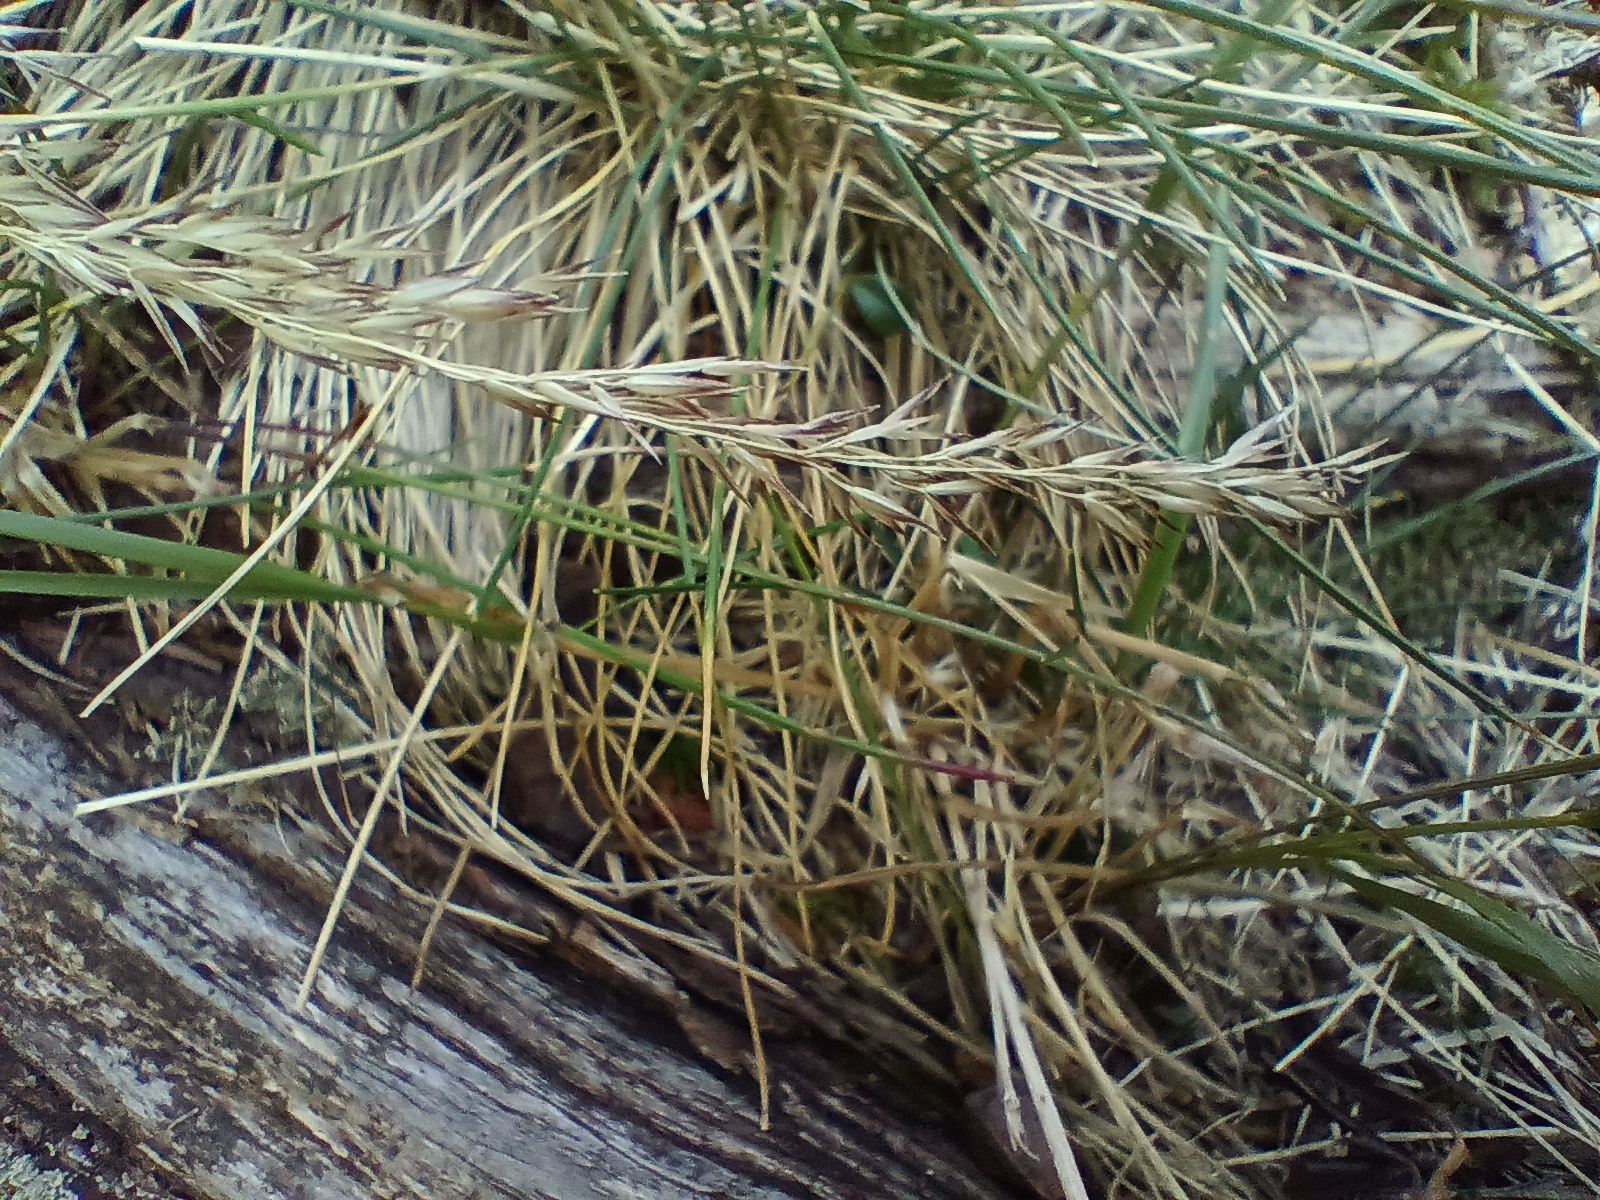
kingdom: Plantae
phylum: Tracheophyta
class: Liliopsida
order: Poales
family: Poaceae
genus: Nardus
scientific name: Nardus stricta
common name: Mat-grass
